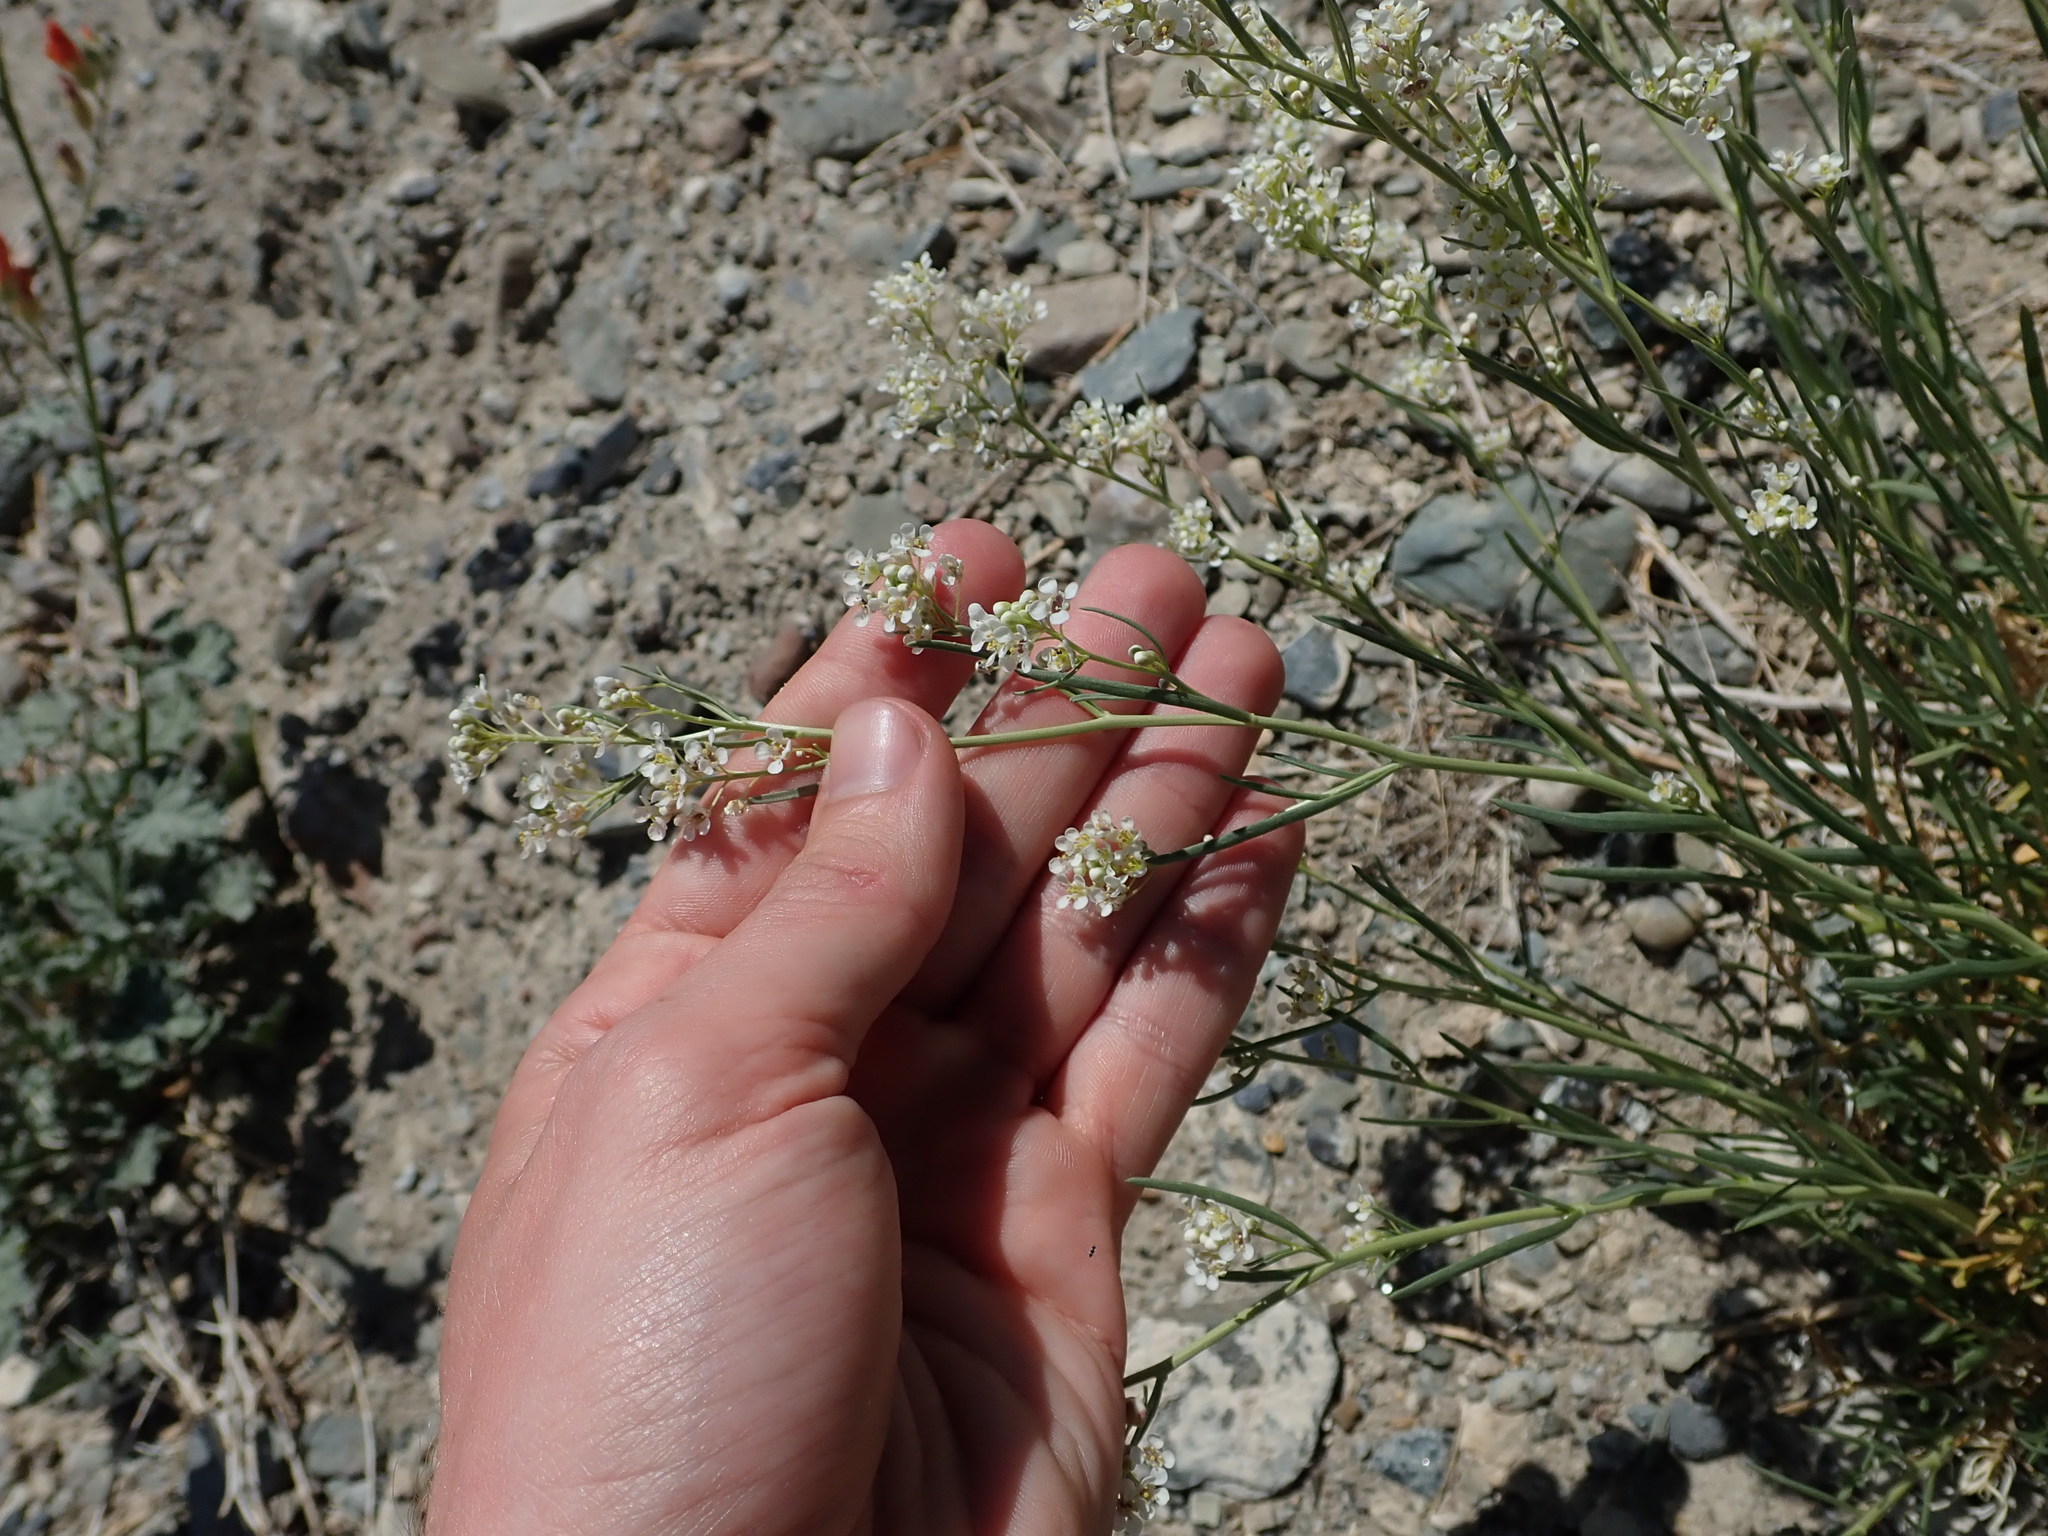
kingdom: Plantae
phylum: Tracheophyta
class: Magnoliopsida
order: Brassicales
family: Brassicaceae
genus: Lepidium
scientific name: Lepidium fremontii
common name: Fremont's pepperwort
